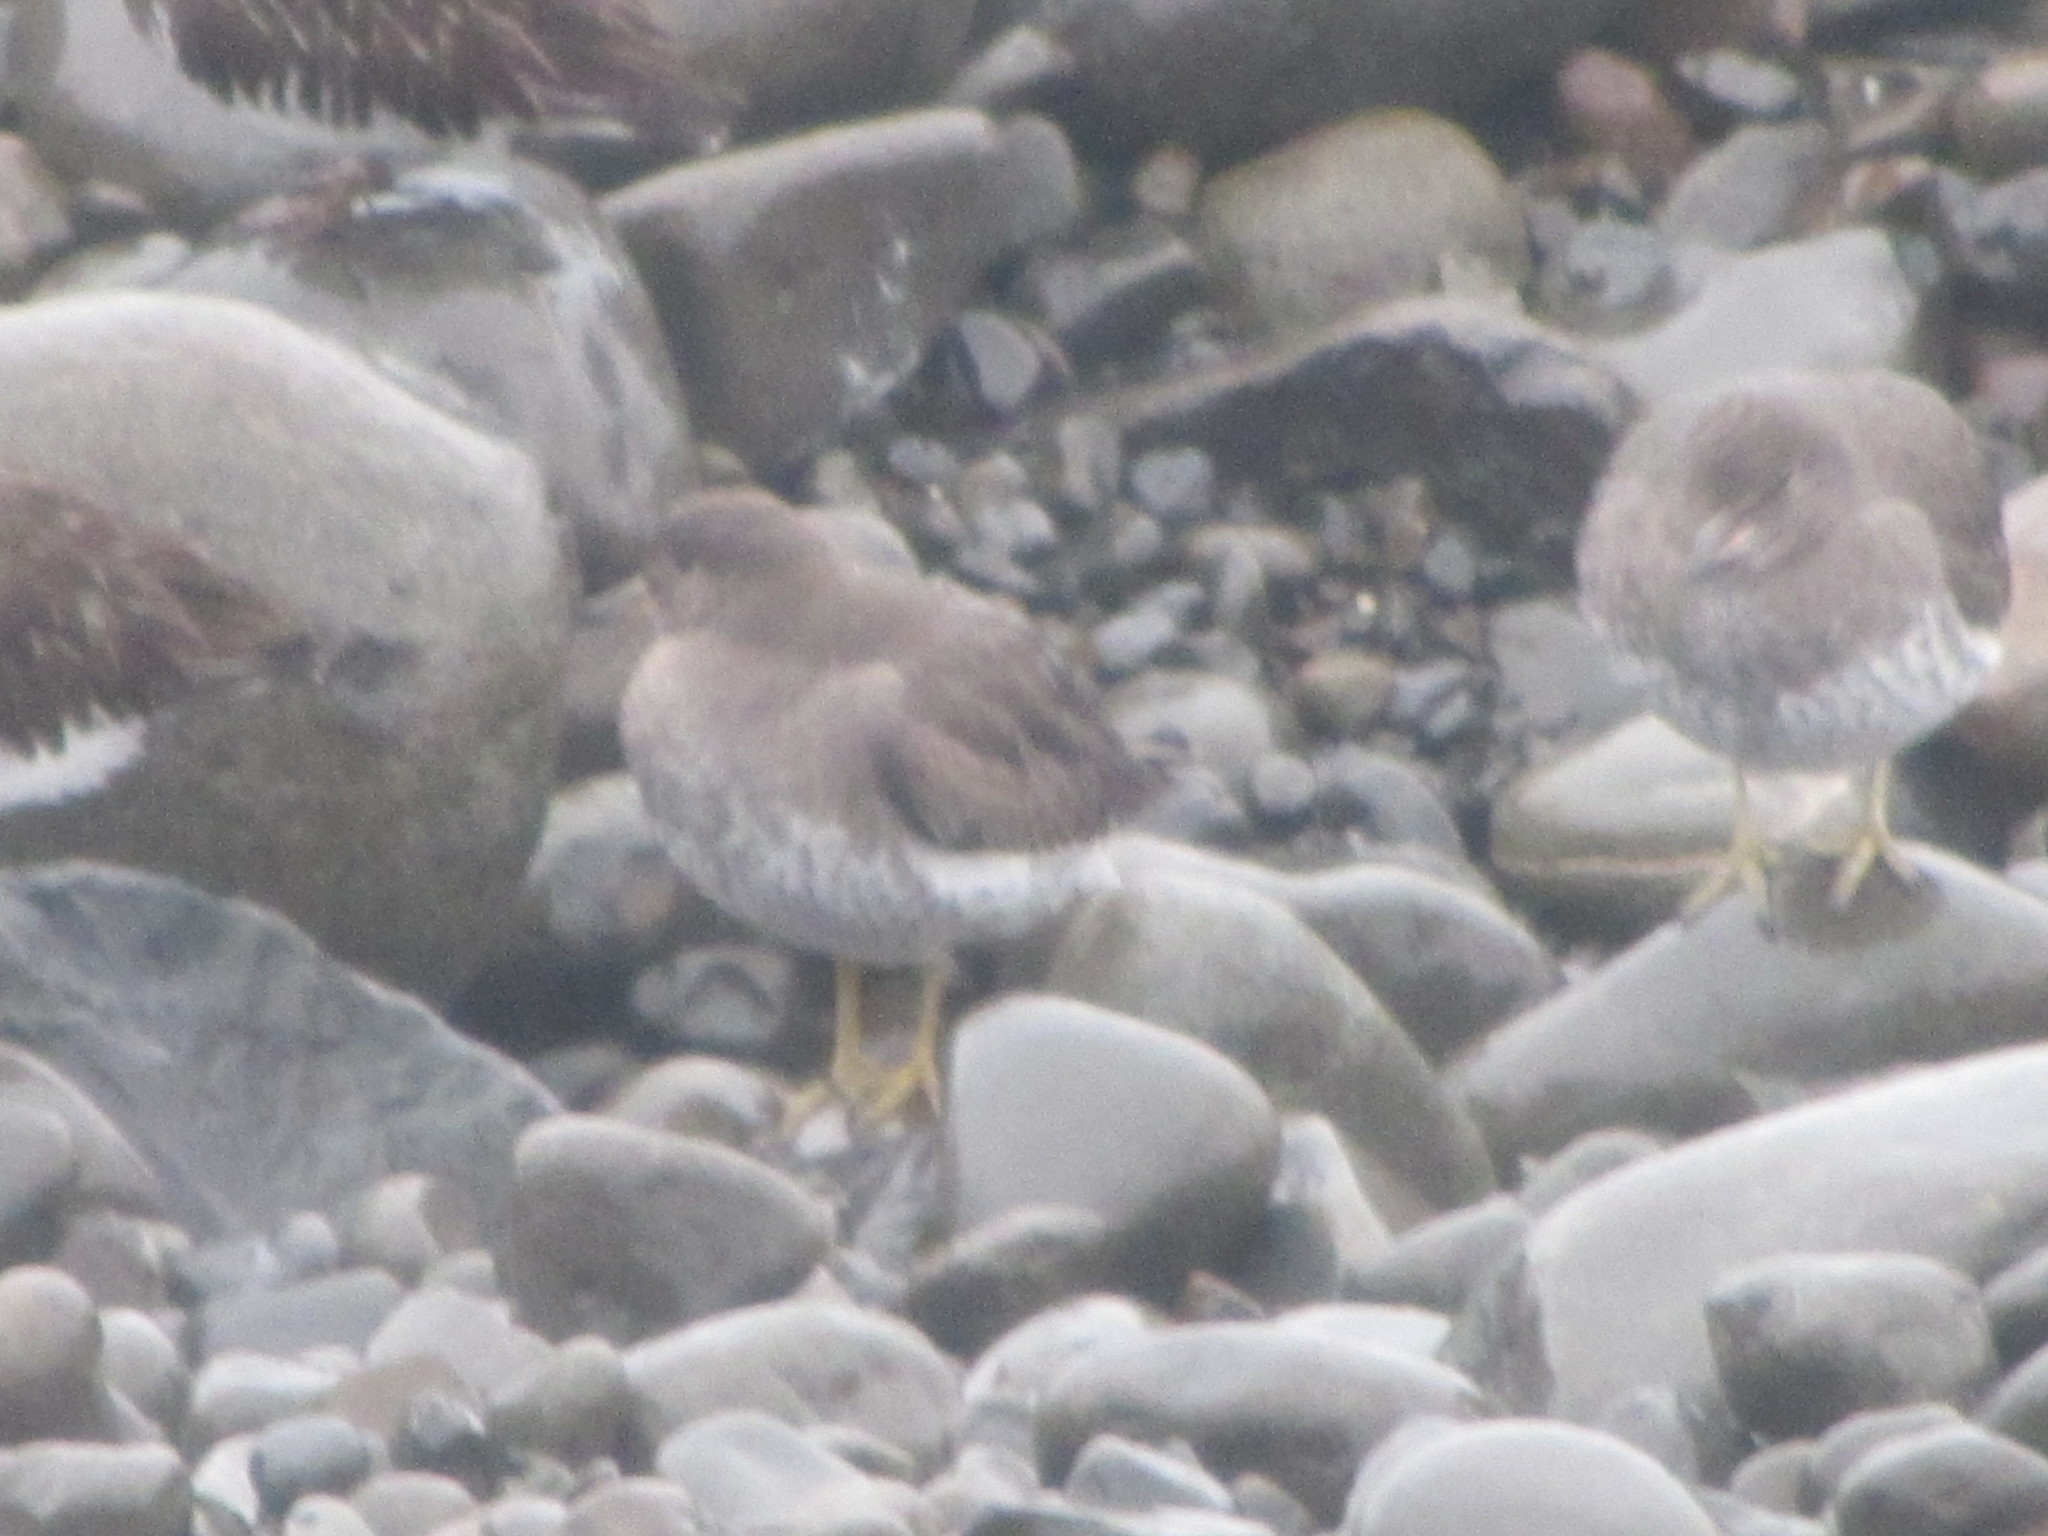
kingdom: Animalia
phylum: Chordata
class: Aves
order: Charadriiformes
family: Scolopacidae
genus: Calidris
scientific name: Calidris virgata
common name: Surfbird
